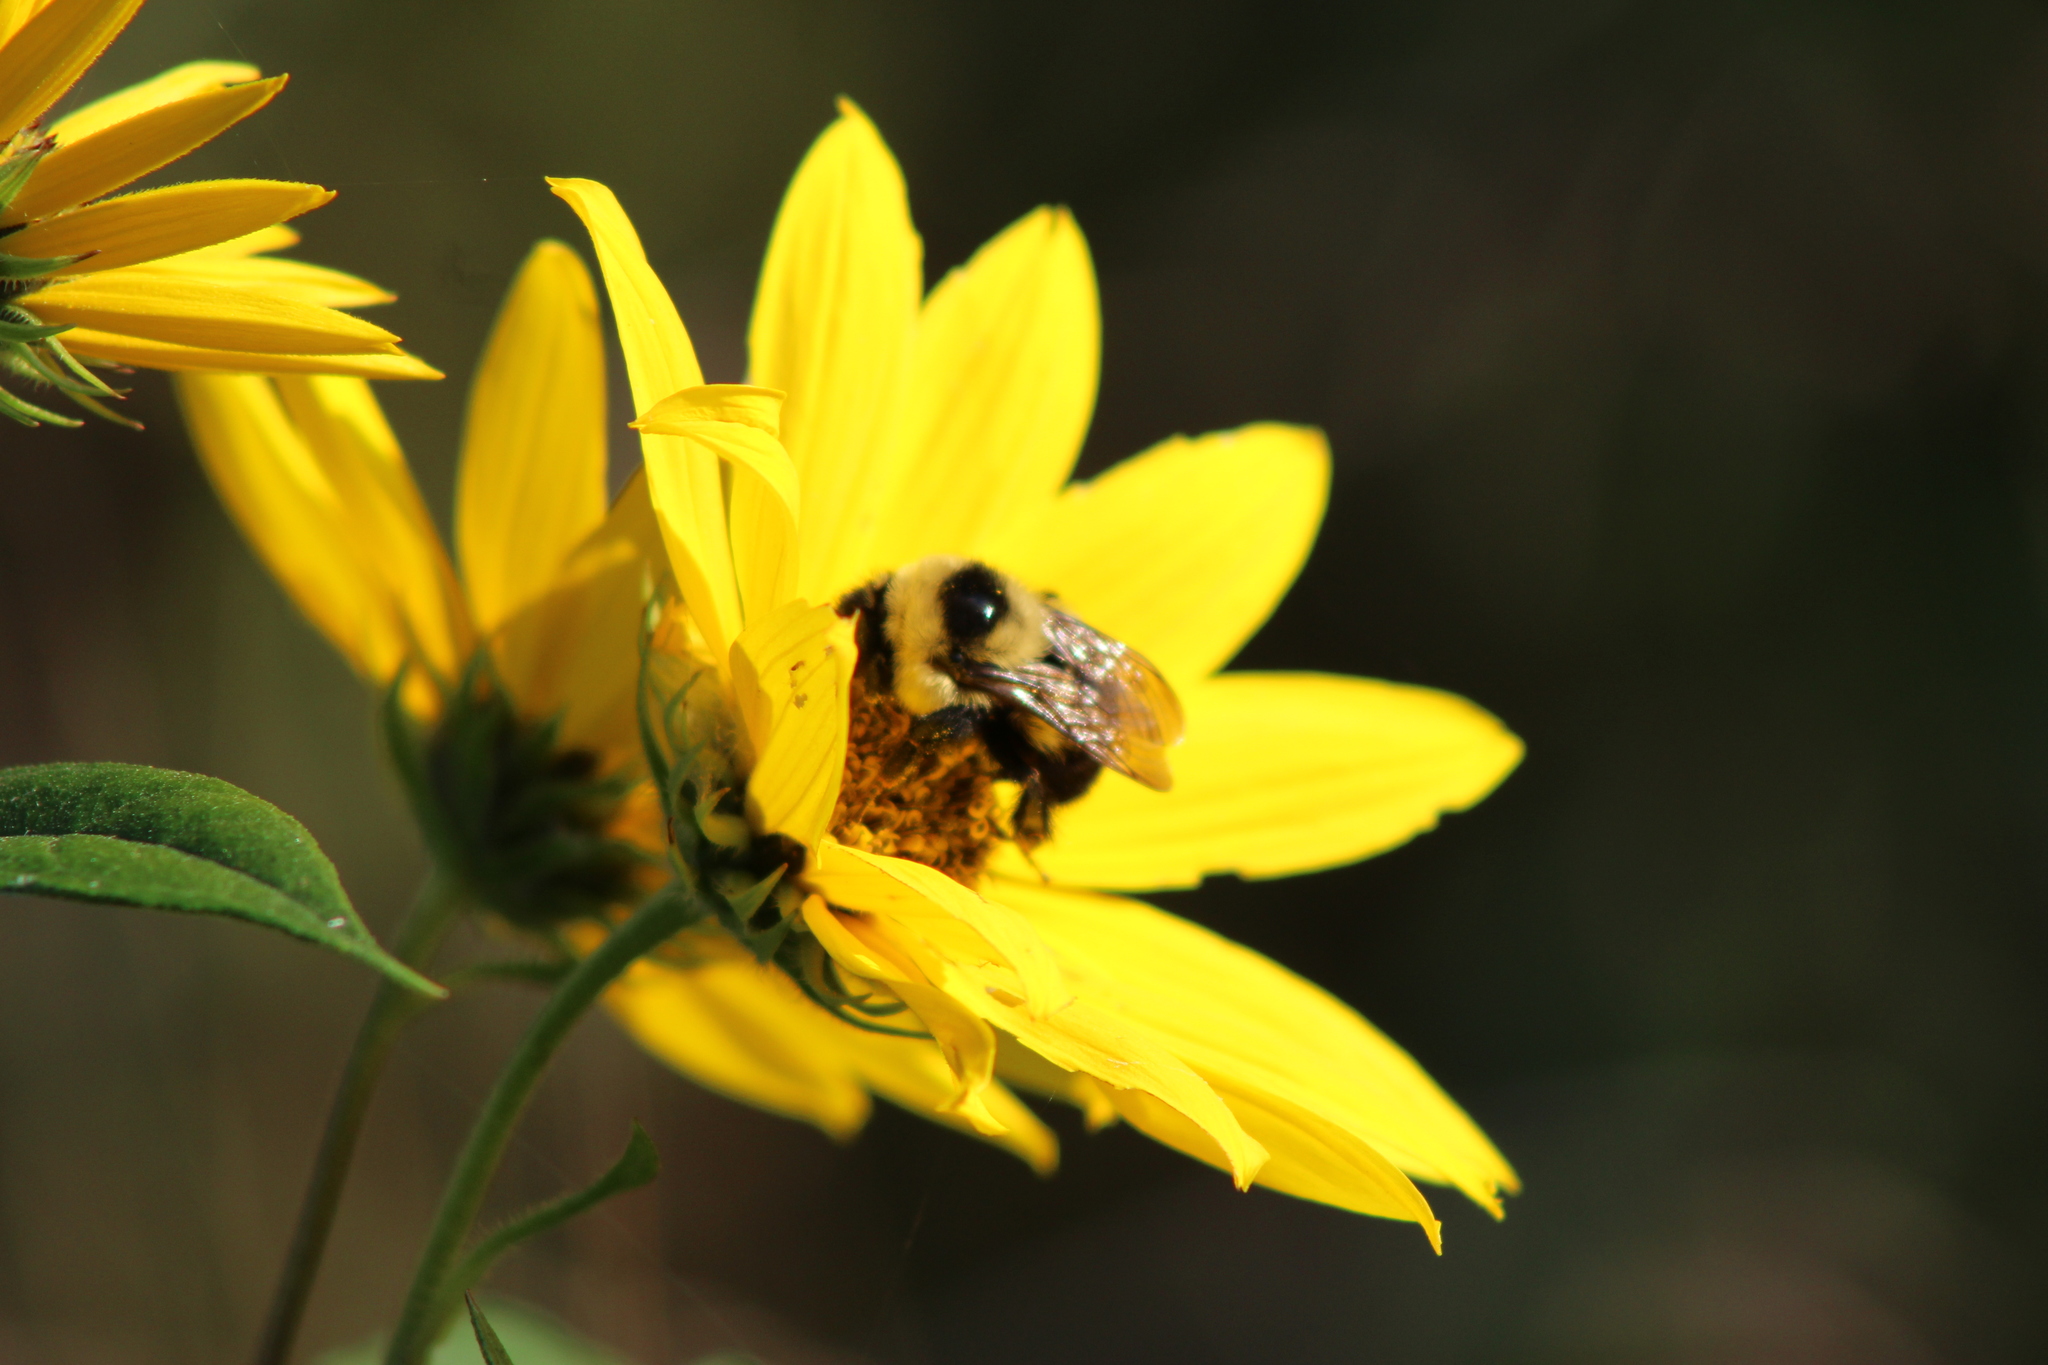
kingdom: Animalia
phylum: Arthropoda
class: Insecta
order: Hymenoptera
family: Apidae
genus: Bombus
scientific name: Bombus rufocinctus
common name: Red-belted bumble bee
